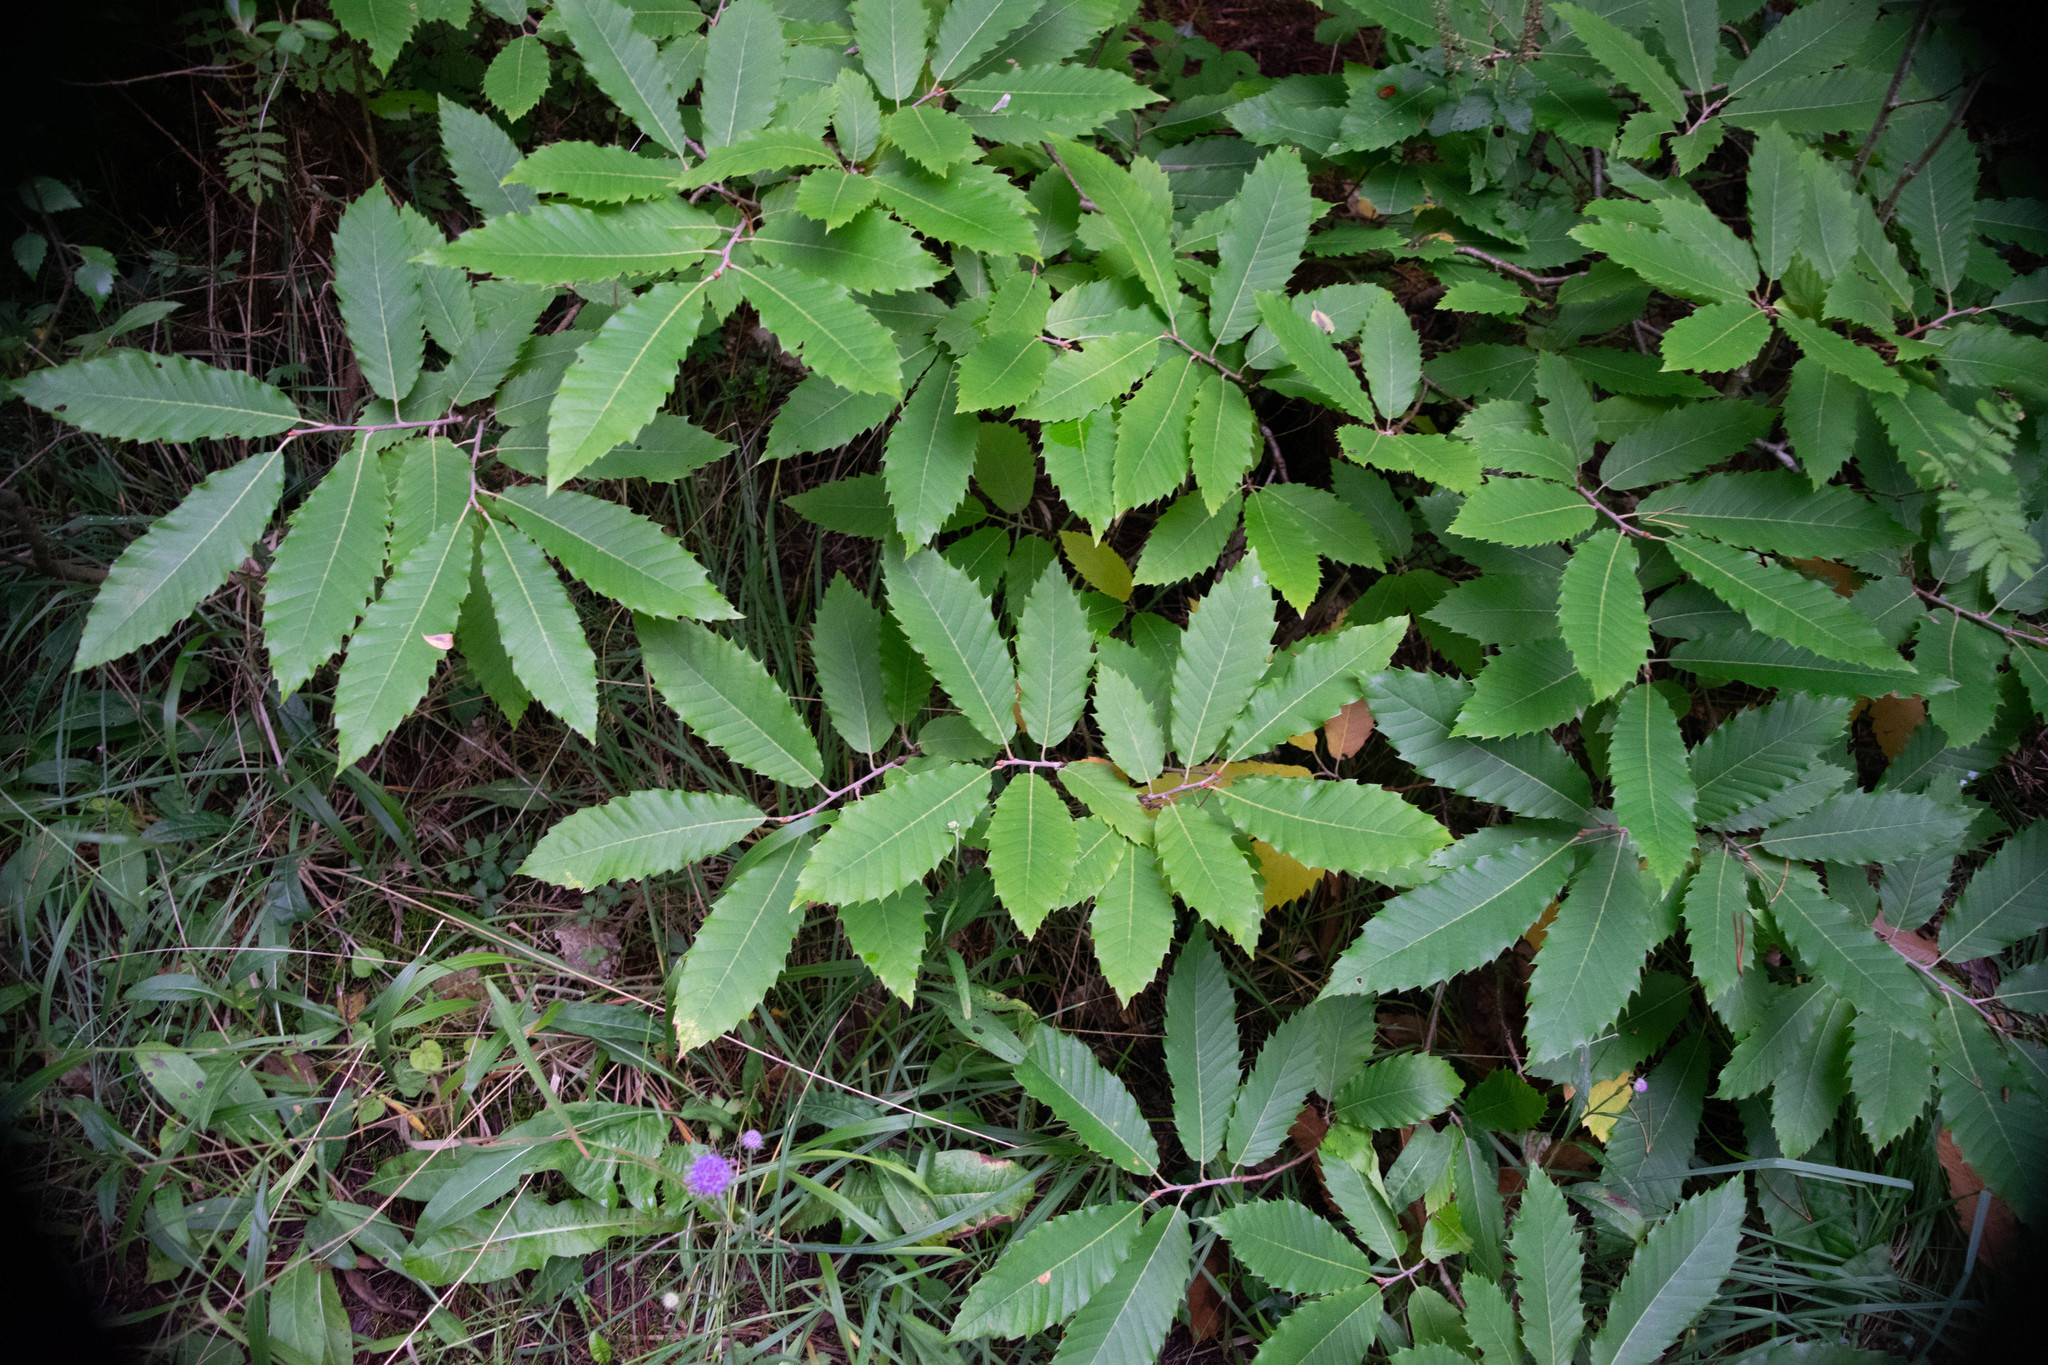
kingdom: Plantae
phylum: Tracheophyta
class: Magnoliopsida
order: Fagales
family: Fagaceae
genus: Castanea
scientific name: Castanea sativa
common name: Sweet chestnut
